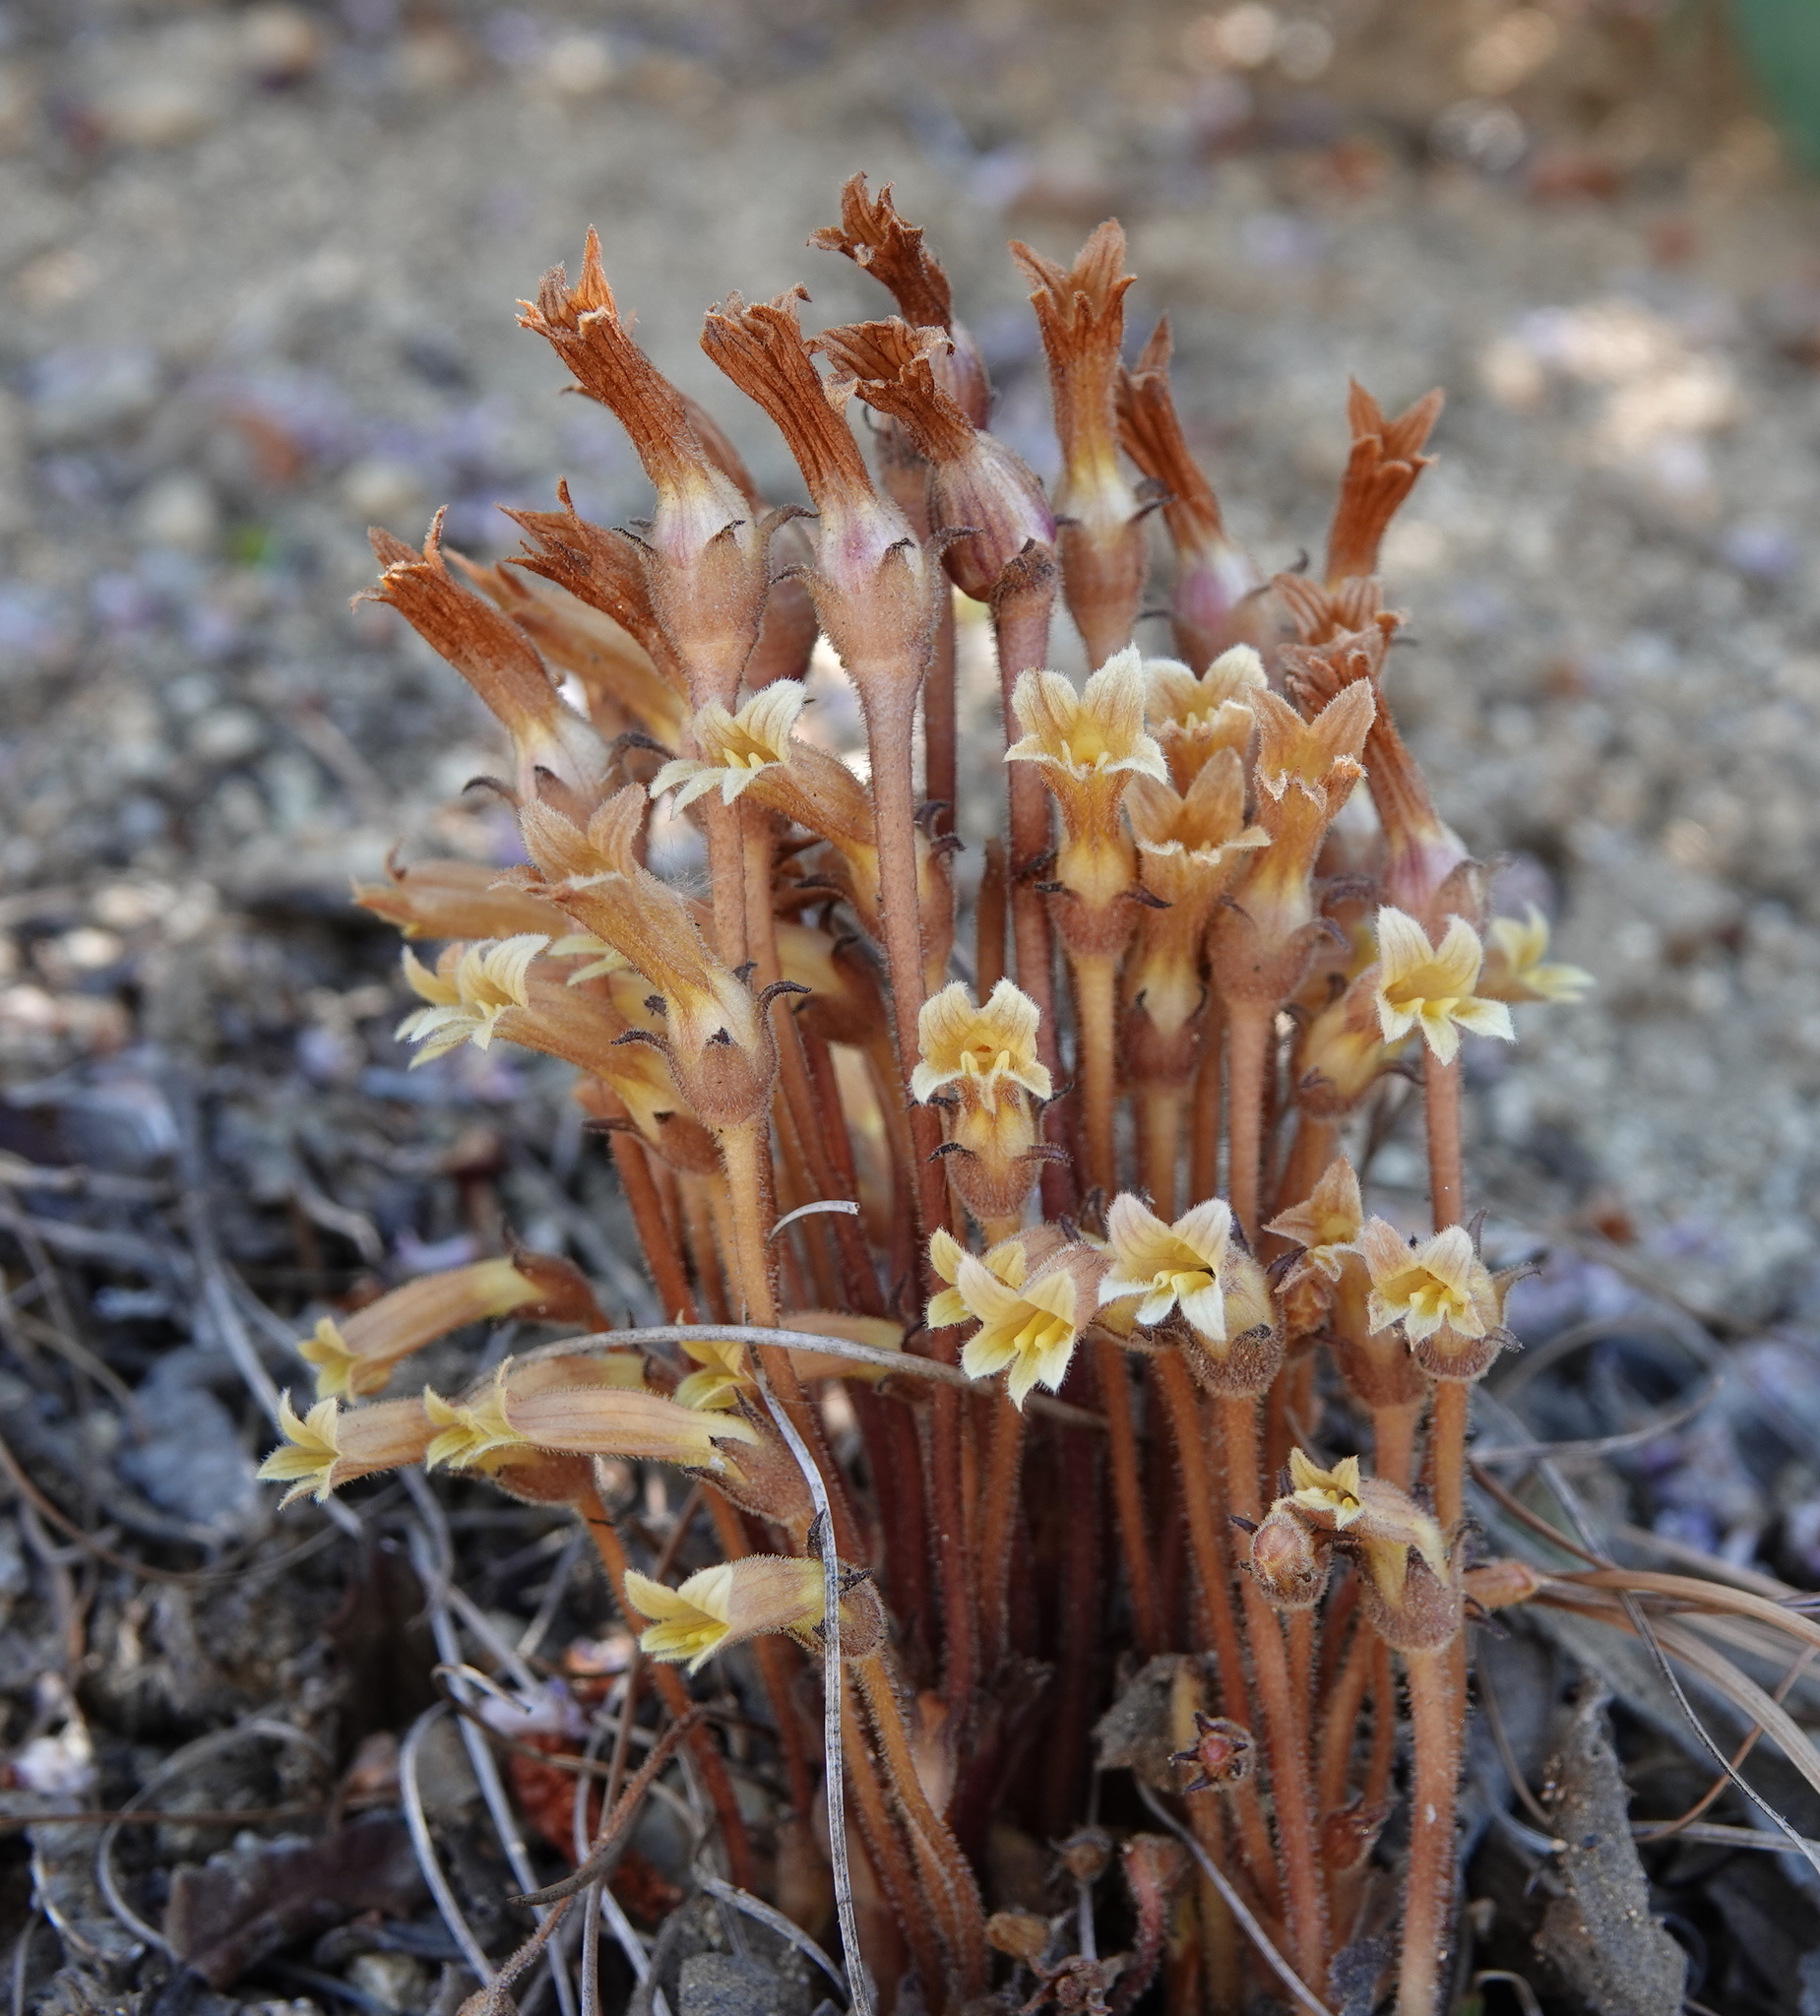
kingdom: Plantae
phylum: Tracheophyta
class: Magnoliopsida
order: Lamiales
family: Orobanchaceae
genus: Aphyllon
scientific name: Aphyllon franciscanum
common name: San francisco broomrape
